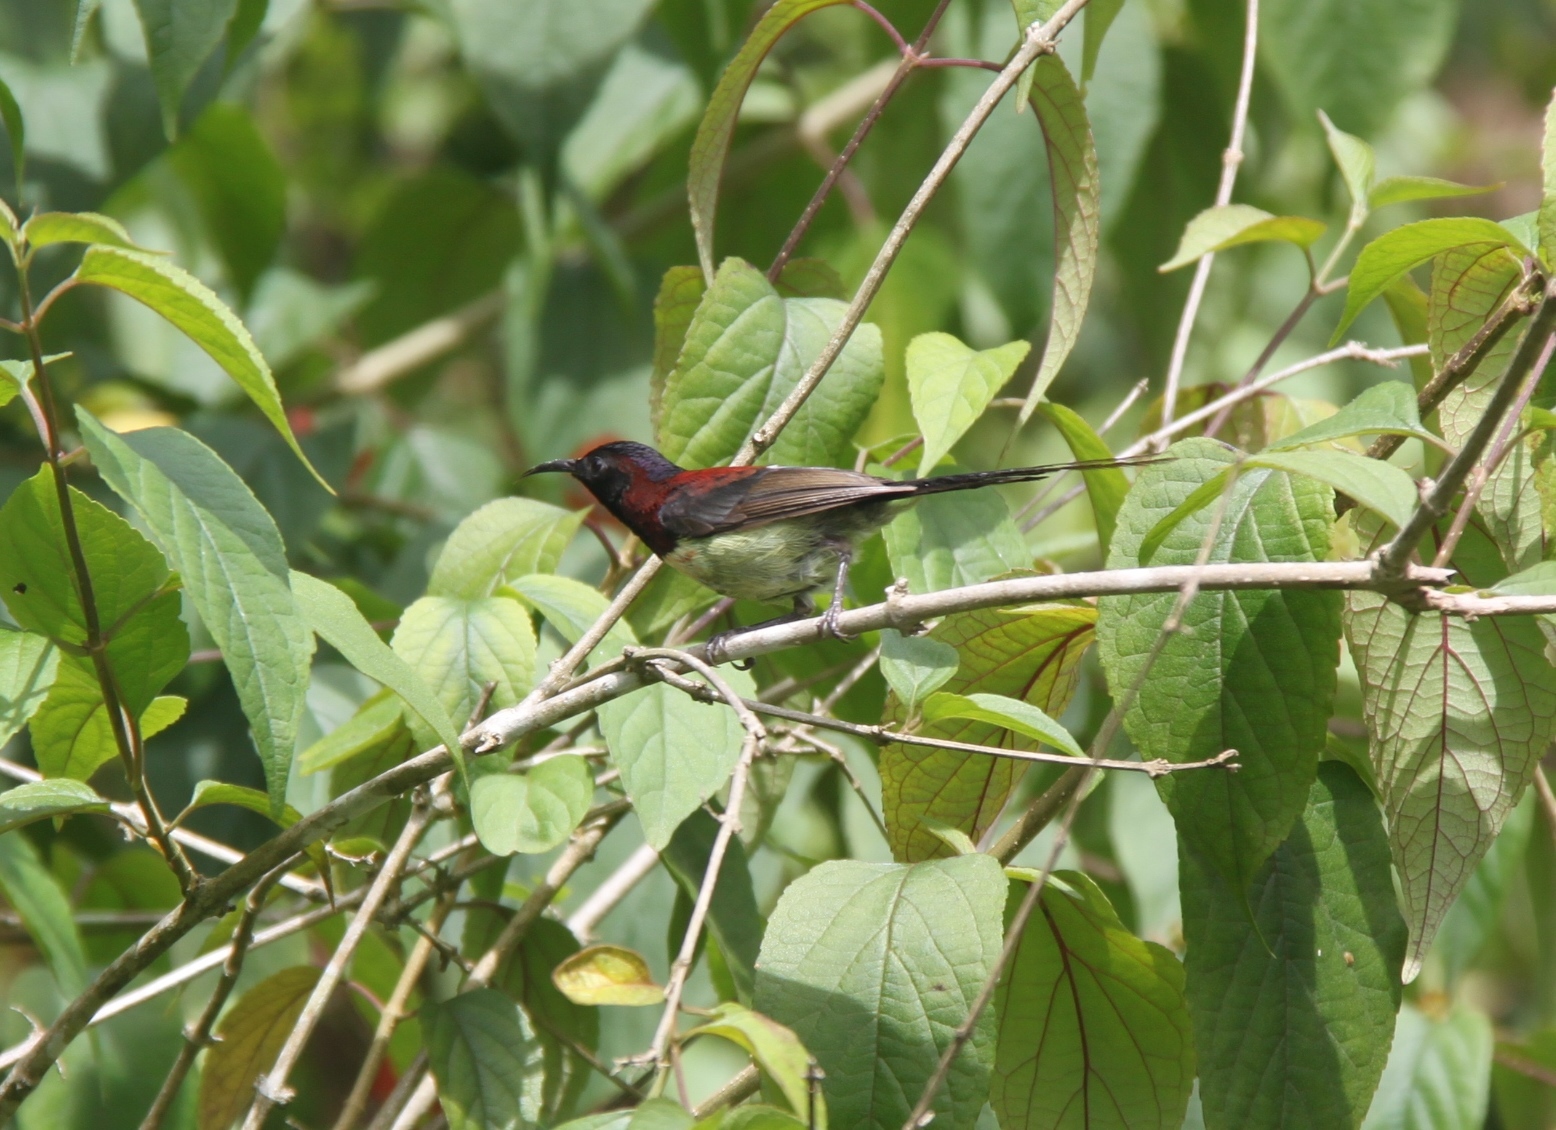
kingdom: Animalia
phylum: Chordata
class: Aves
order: Passeriformes
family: Nectariniidae
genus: Aethopyga
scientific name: Aethopyga saturata
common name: Black-throated sunbird
